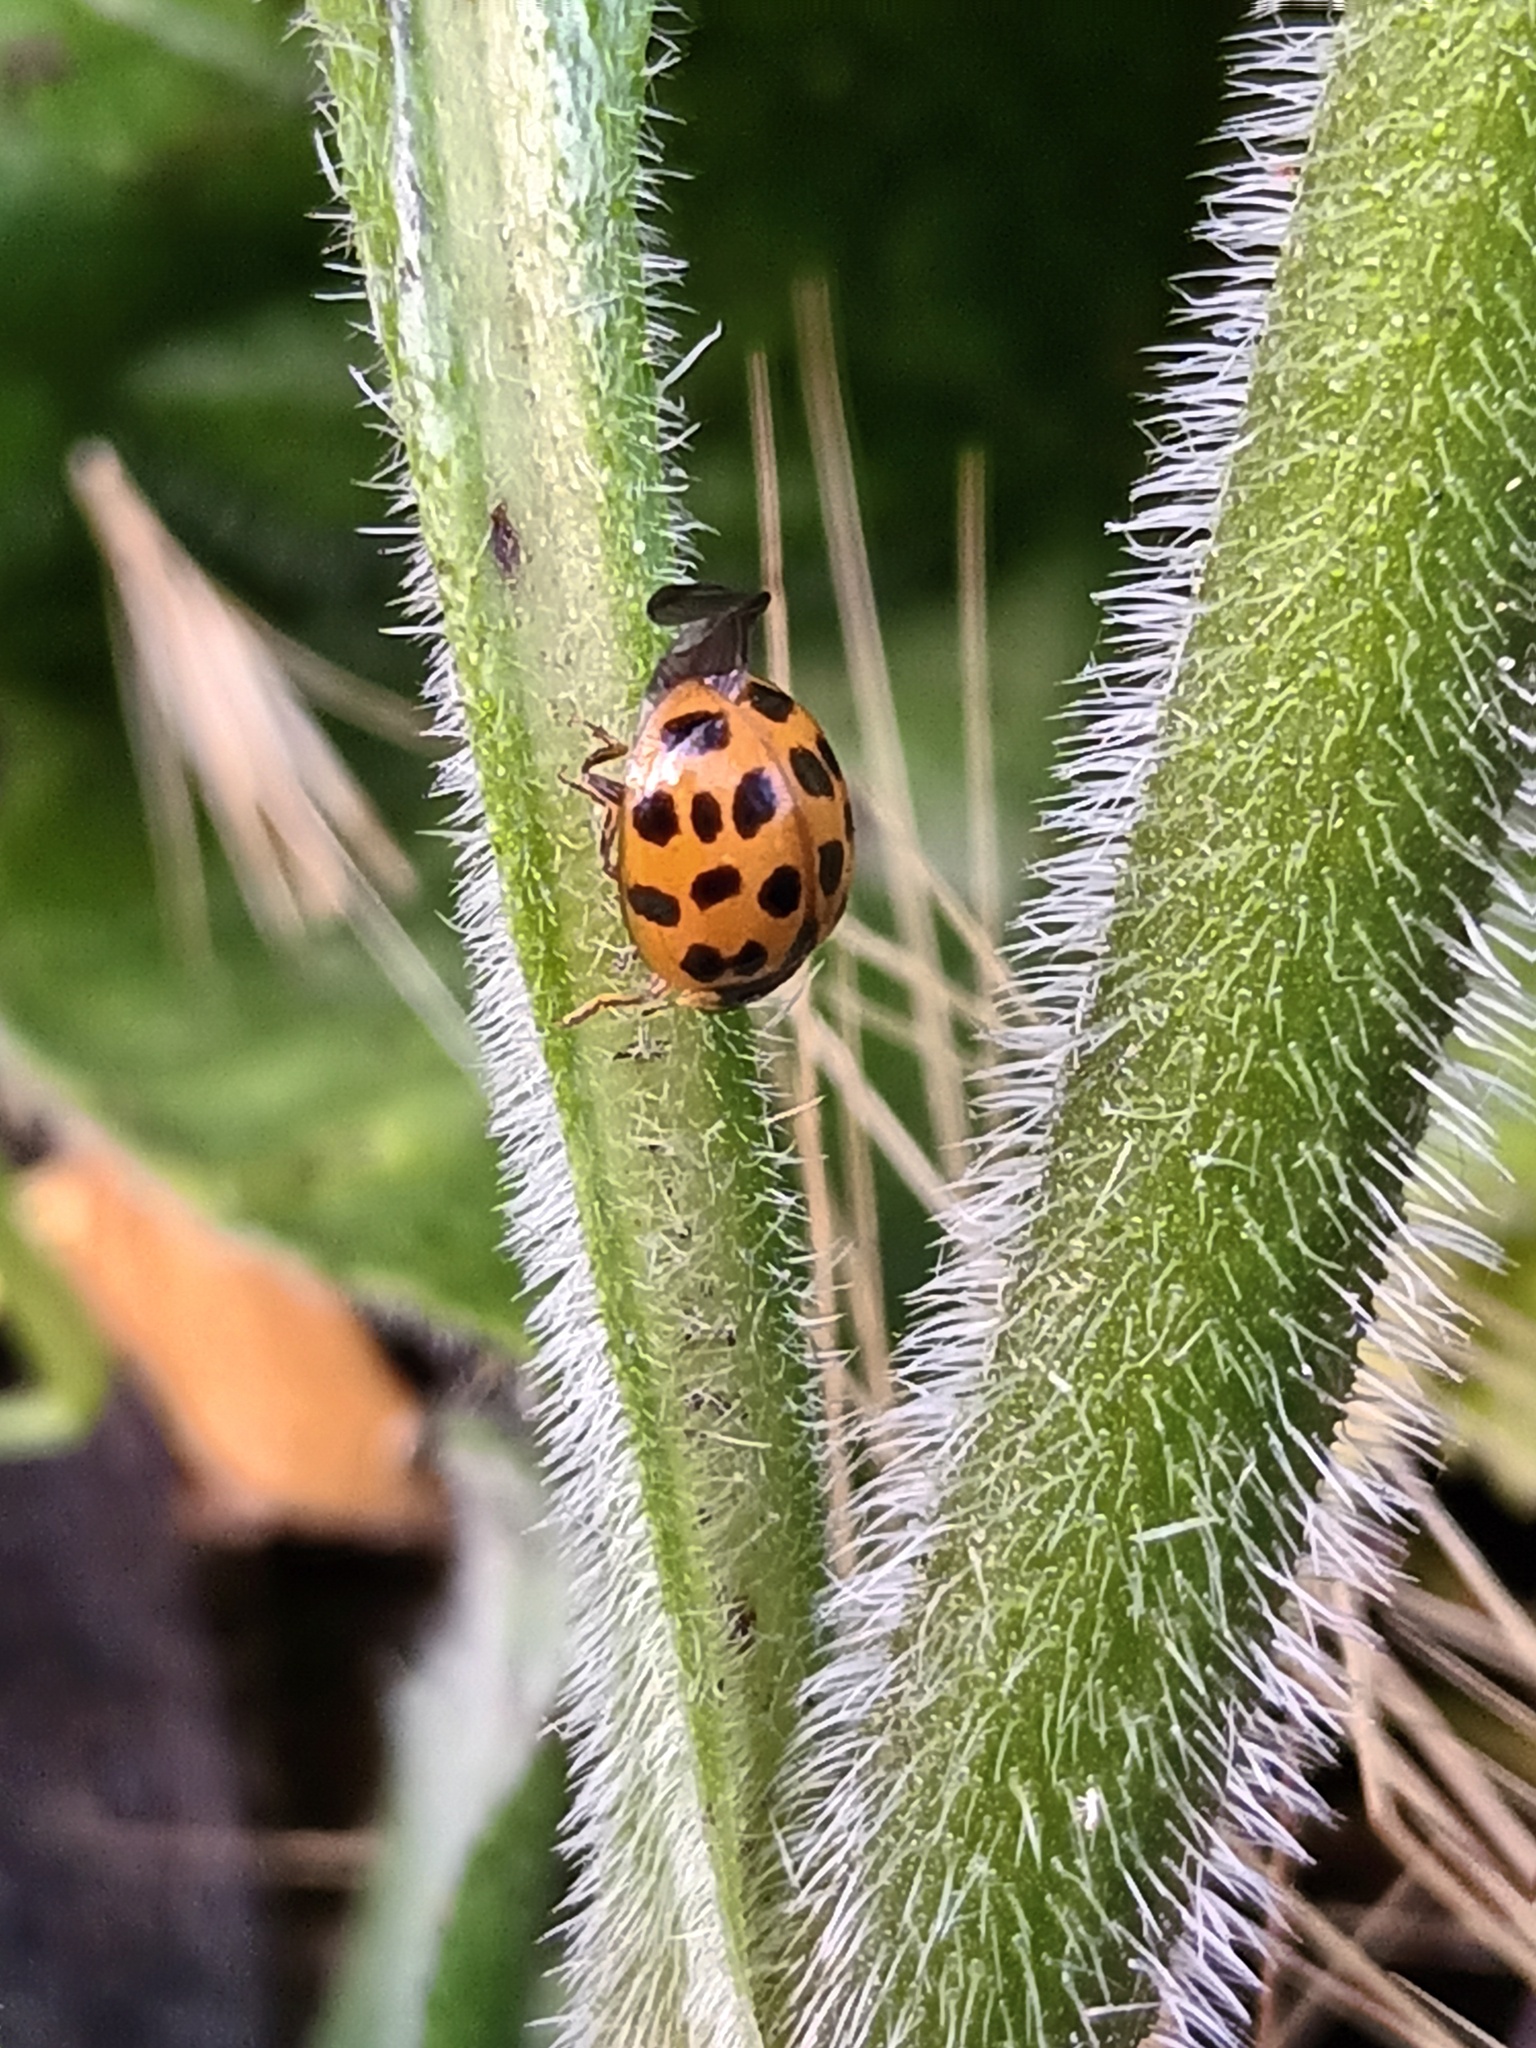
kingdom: Animalia
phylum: Arthropoda
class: Insecta
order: Coleoptera
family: Coccinellidae
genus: Harmonia
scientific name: Harmonia axyridis
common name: Harlequin ladybird
